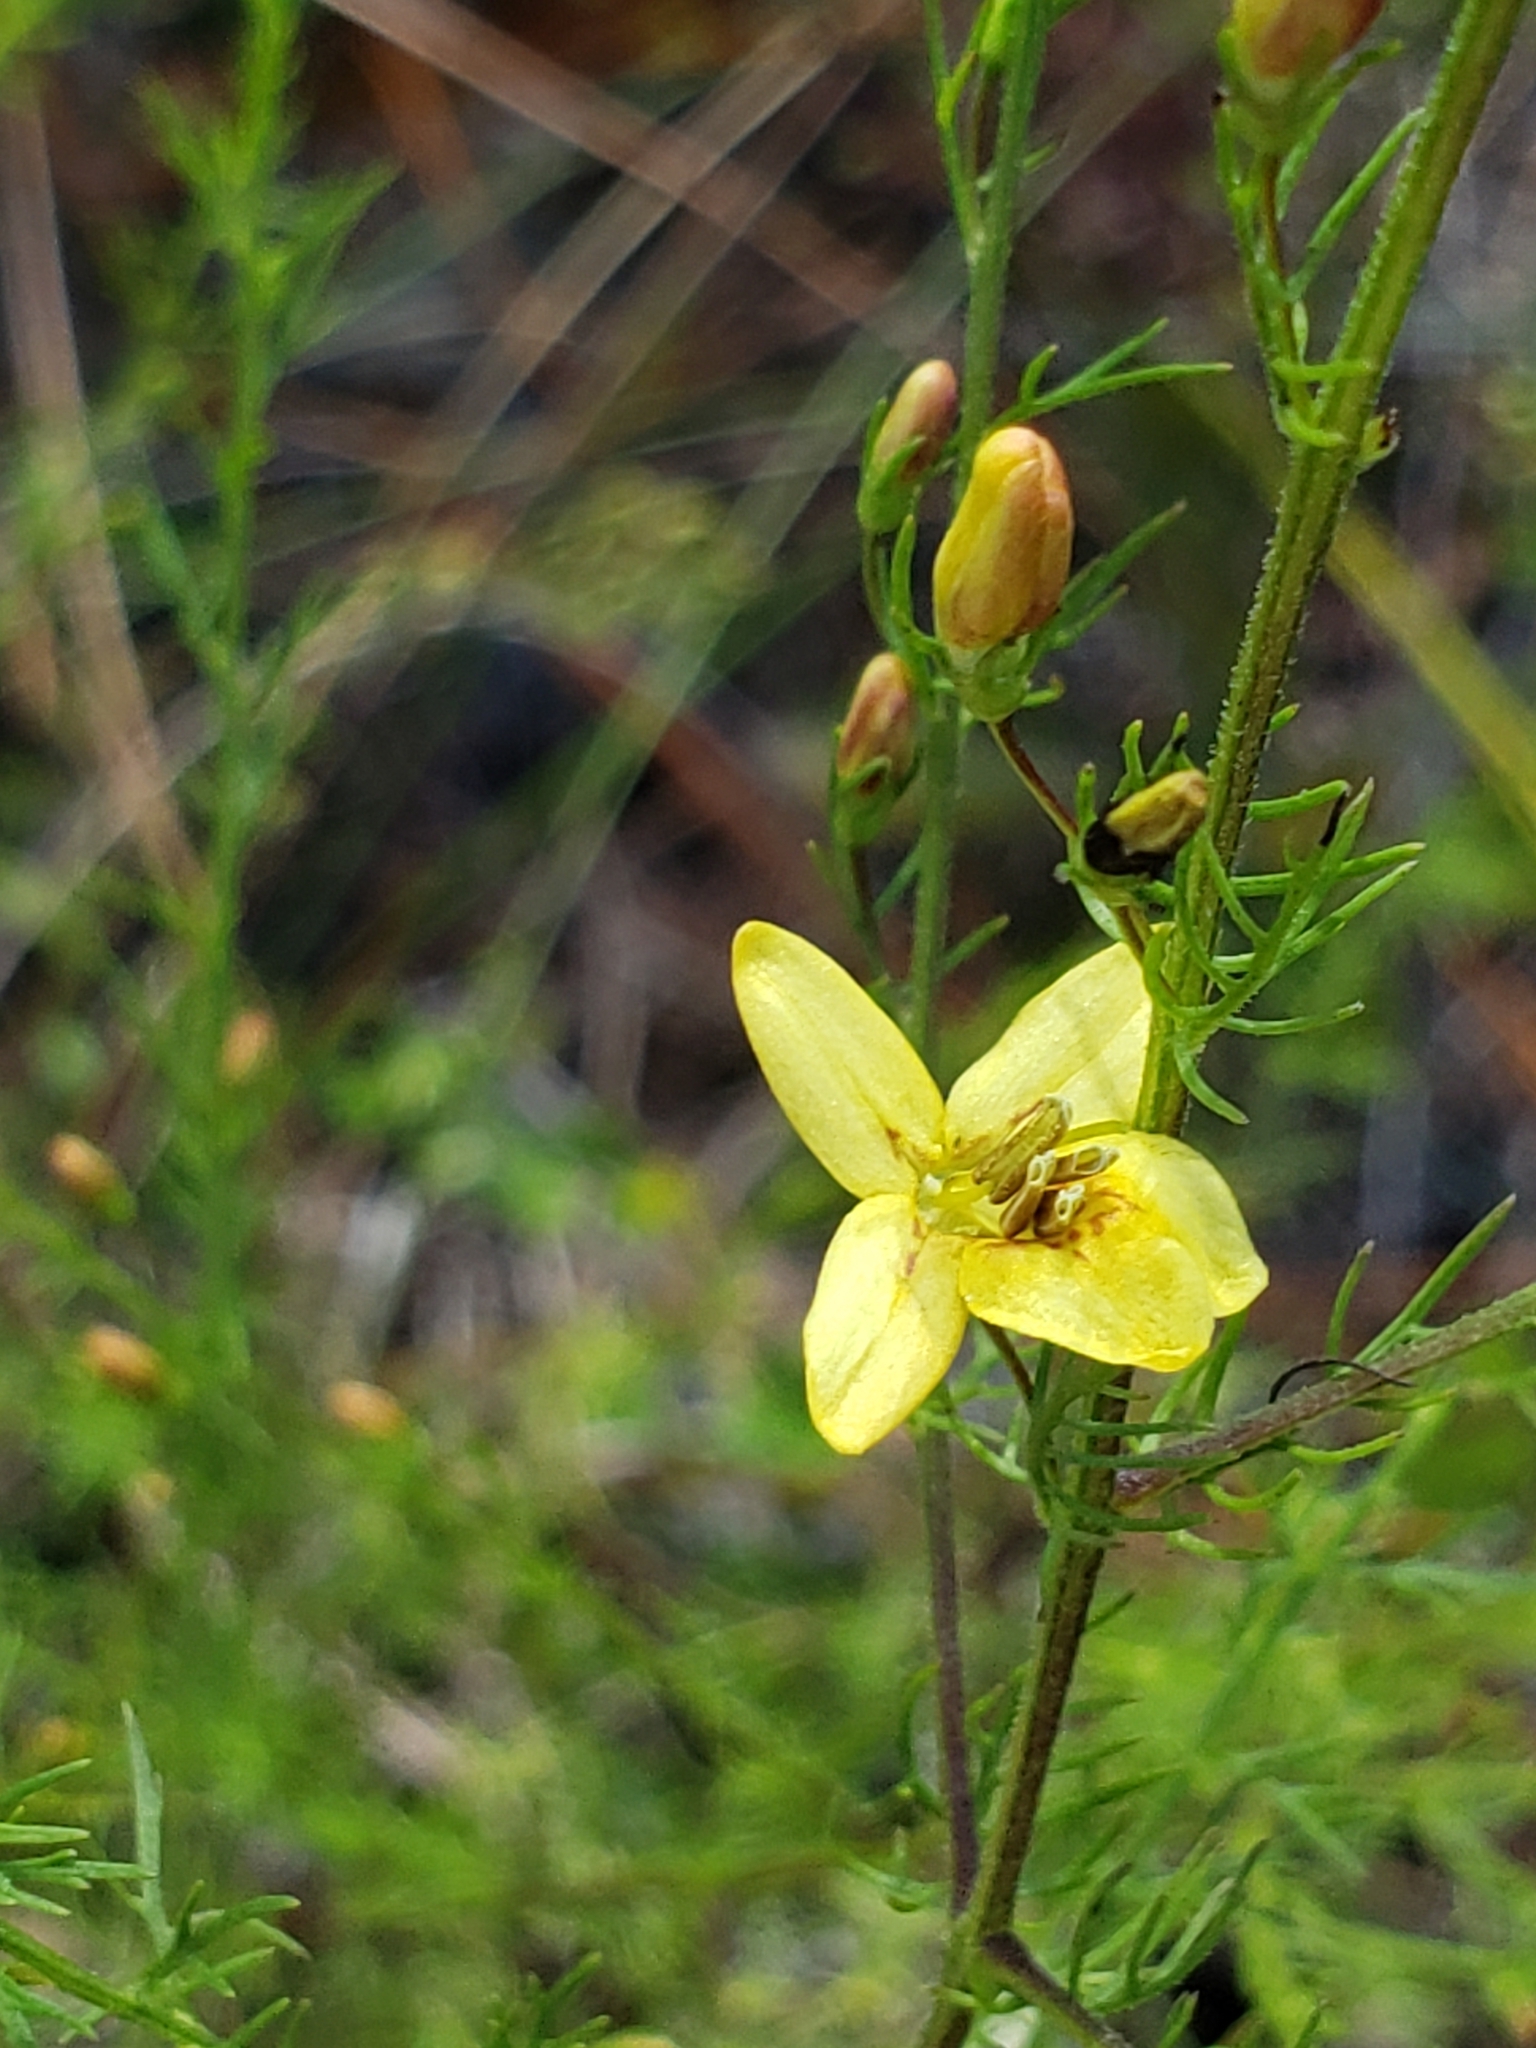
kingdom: Plantae
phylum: Tracheophyta
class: Magnoliopsida
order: Lamiales
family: Orobanchaceae
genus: Seymeria
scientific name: Seymeria cassioides
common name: Yaupon black-senna
